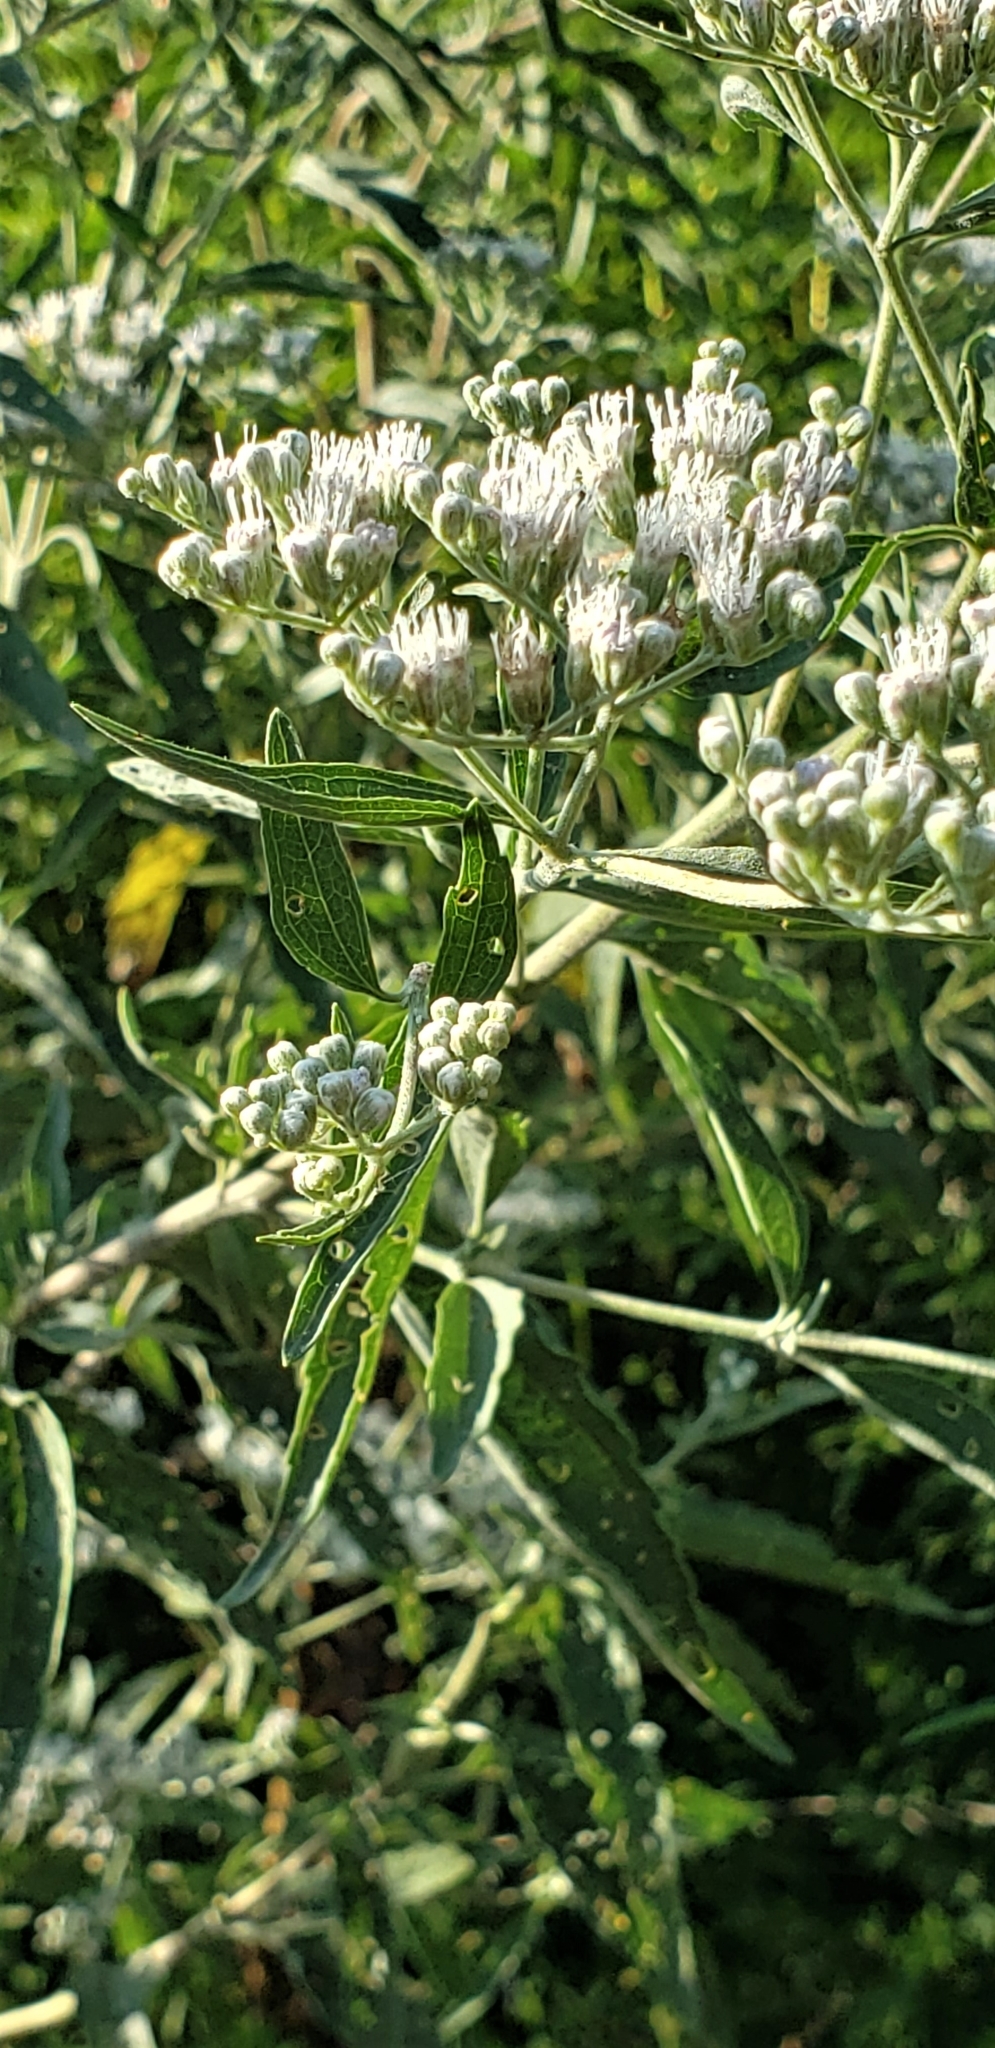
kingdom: Plantae
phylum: Tracheophyta
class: Magnoliopsida
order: Asterales
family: Asteraceae
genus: Eupatorium
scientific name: Eupatorium serotinum
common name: Late boneset
